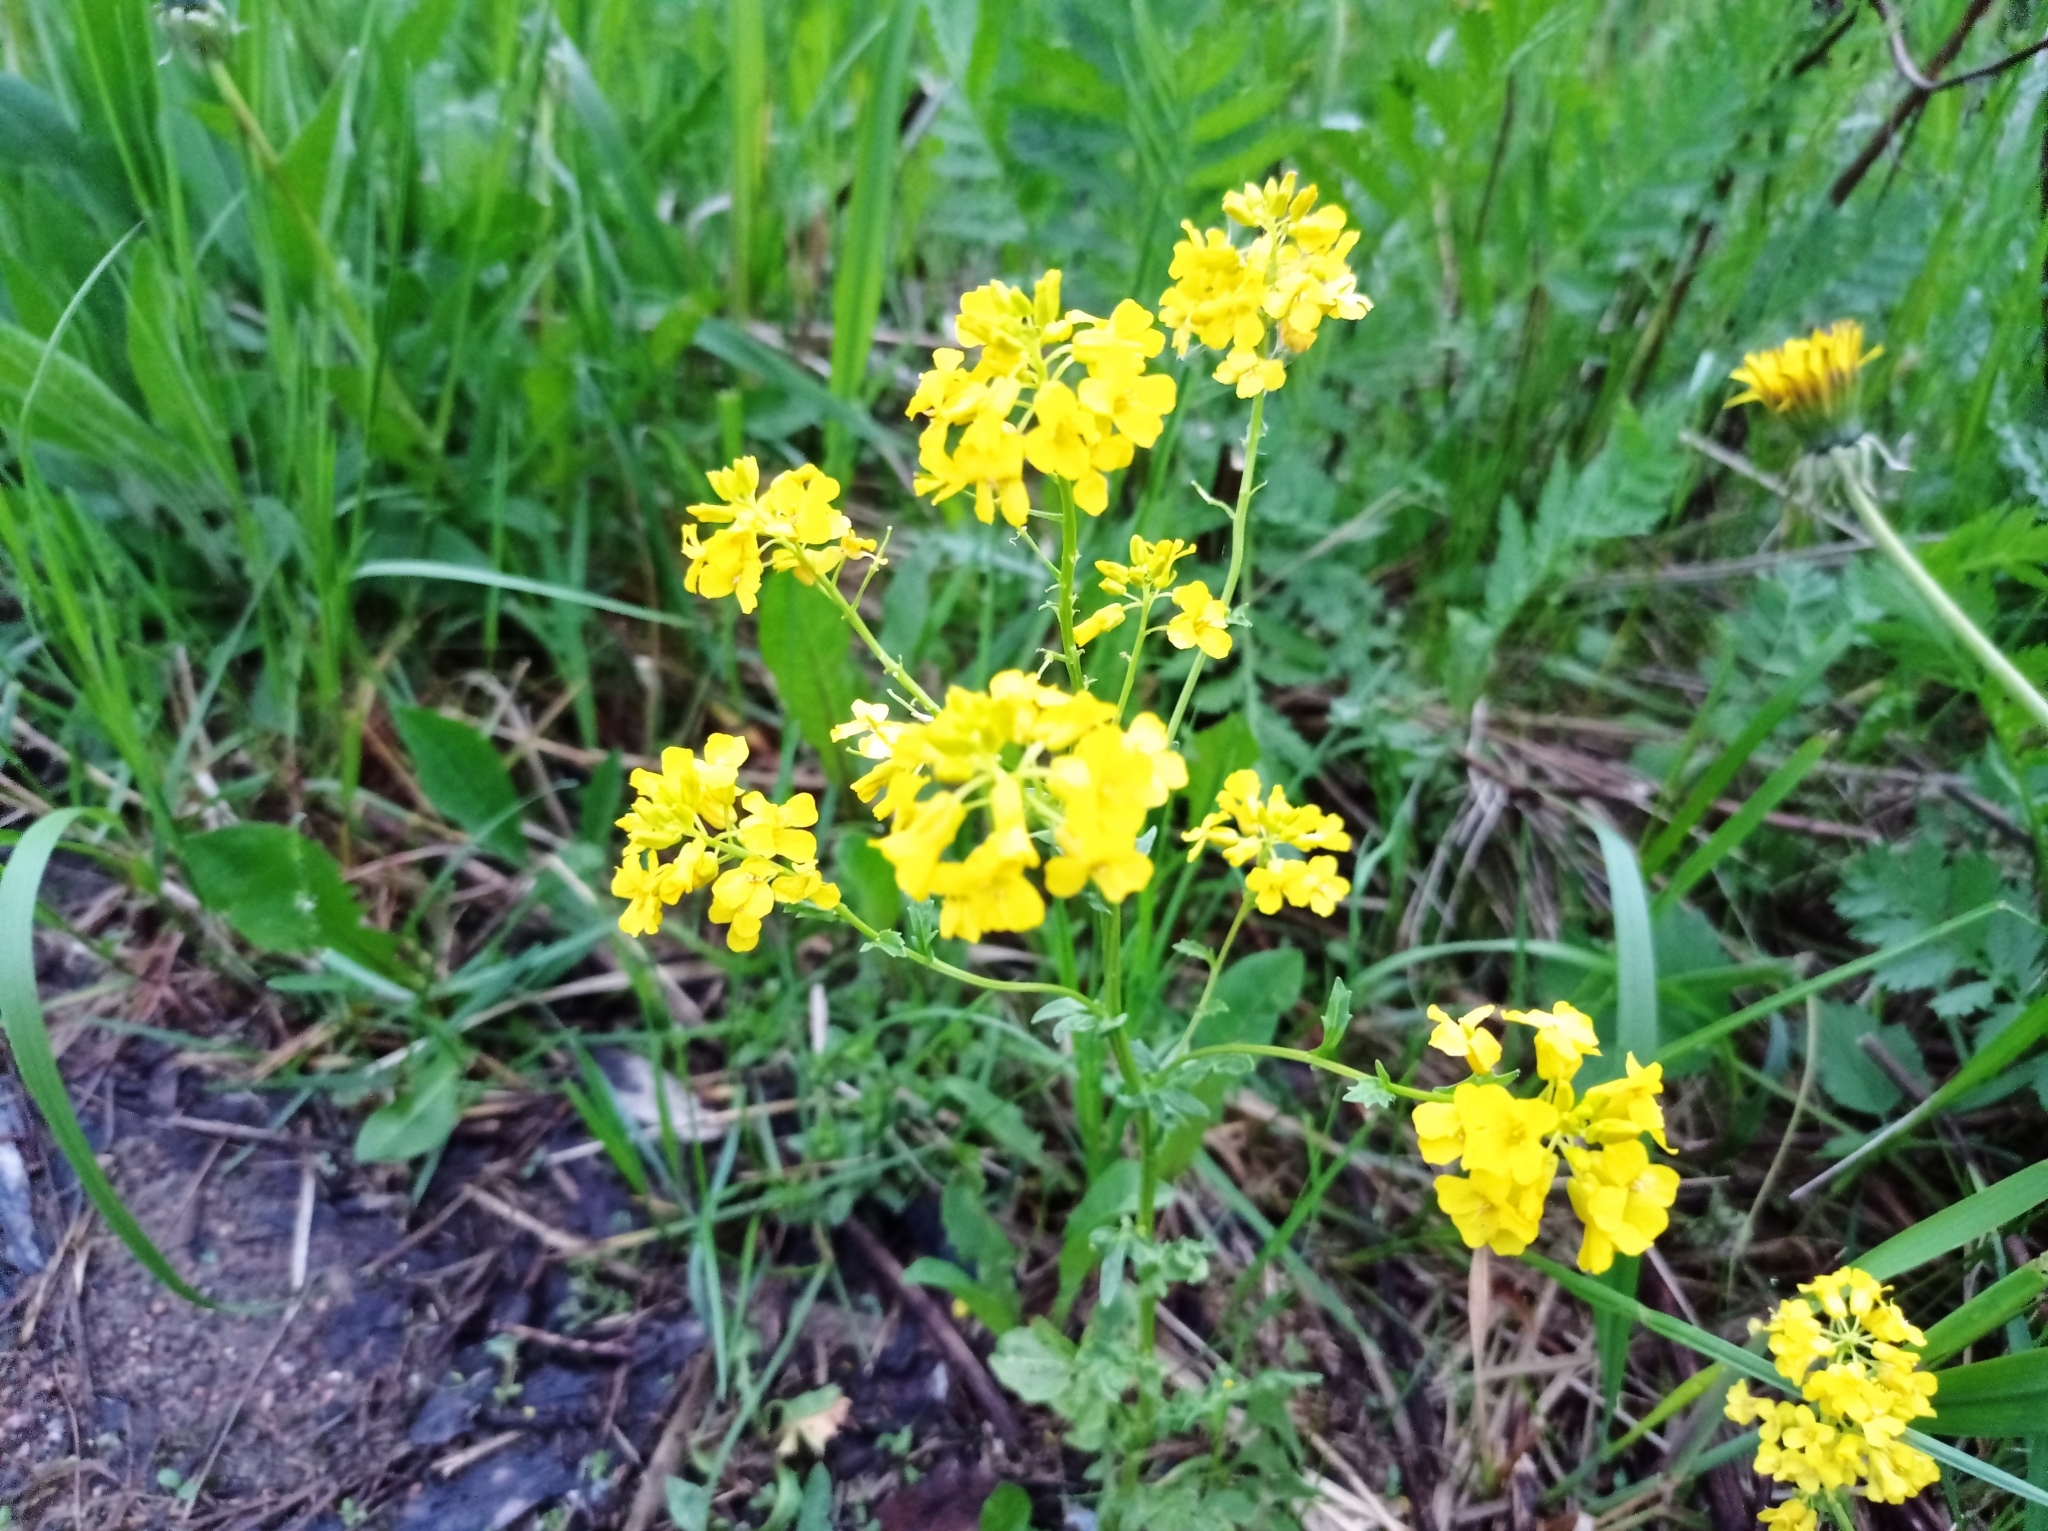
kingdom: Plantae
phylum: Tracheophyta
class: Magnoliopsida
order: Brassicales
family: Brassicaceae
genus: Barbarea
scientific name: Barbarea vulgaris
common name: Cressy-greens
